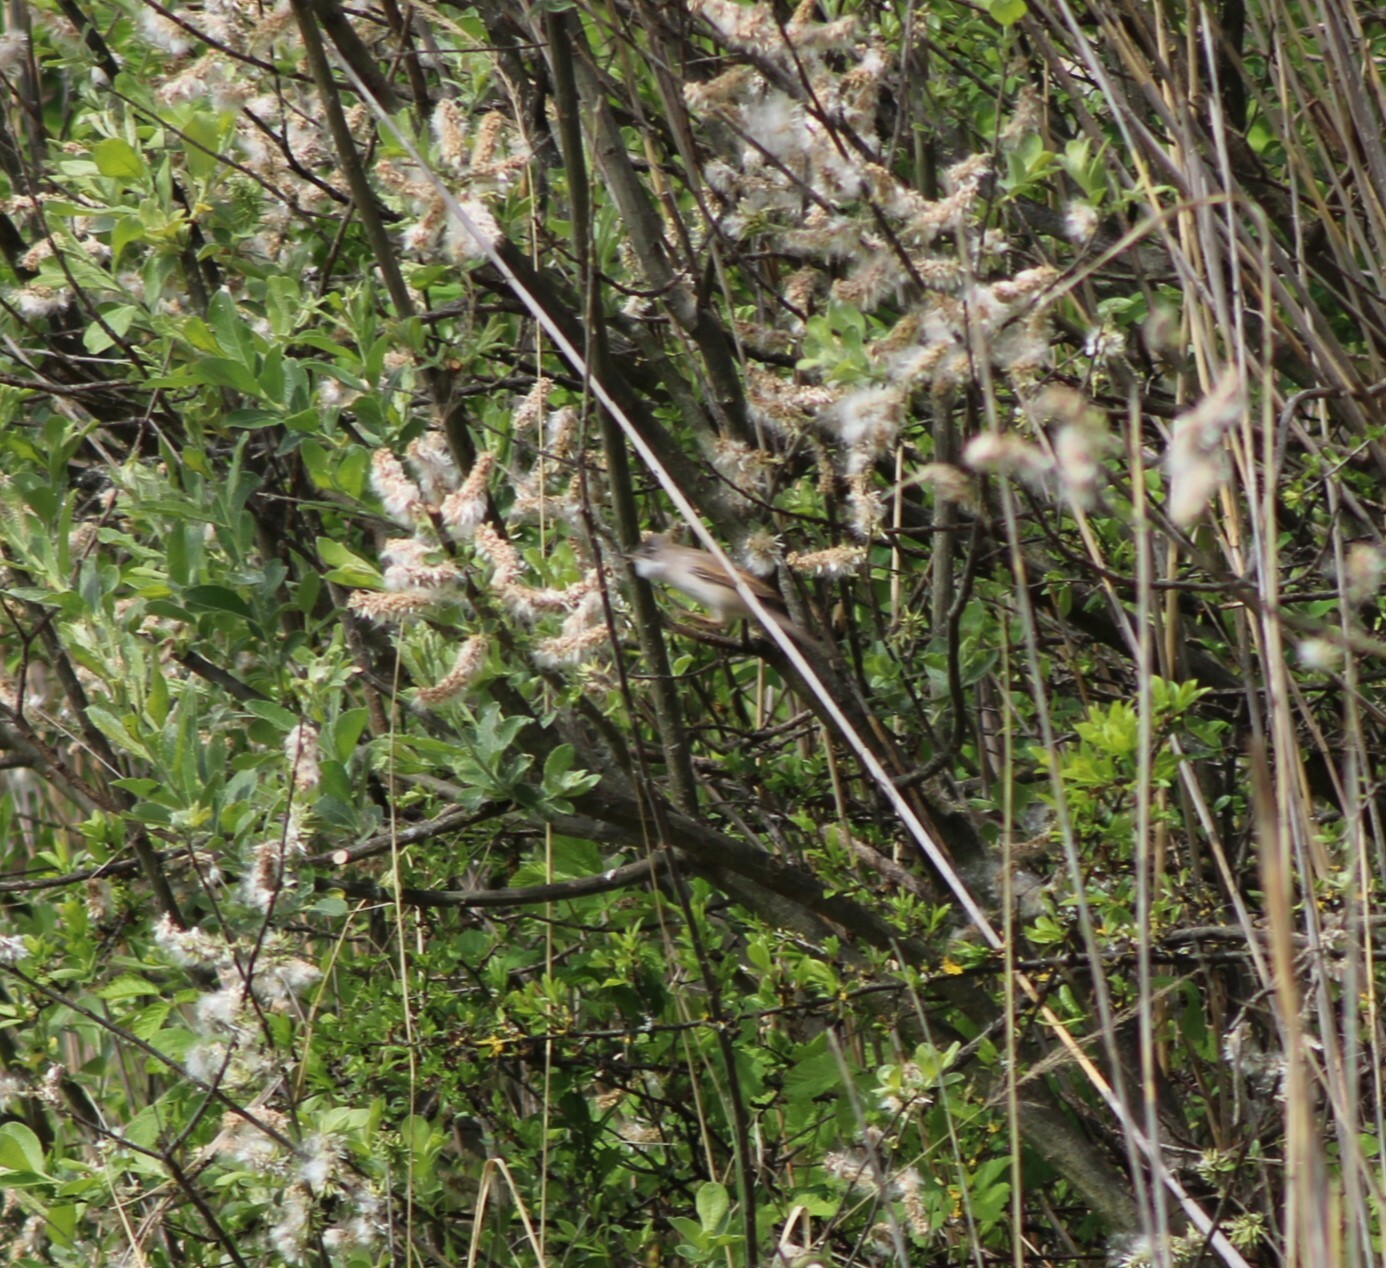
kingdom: Animalia
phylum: Chordata
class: Aves
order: Passeriformes
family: Sylviidae
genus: Sylvia
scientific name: Sylvia communis
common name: Common whitethroat
